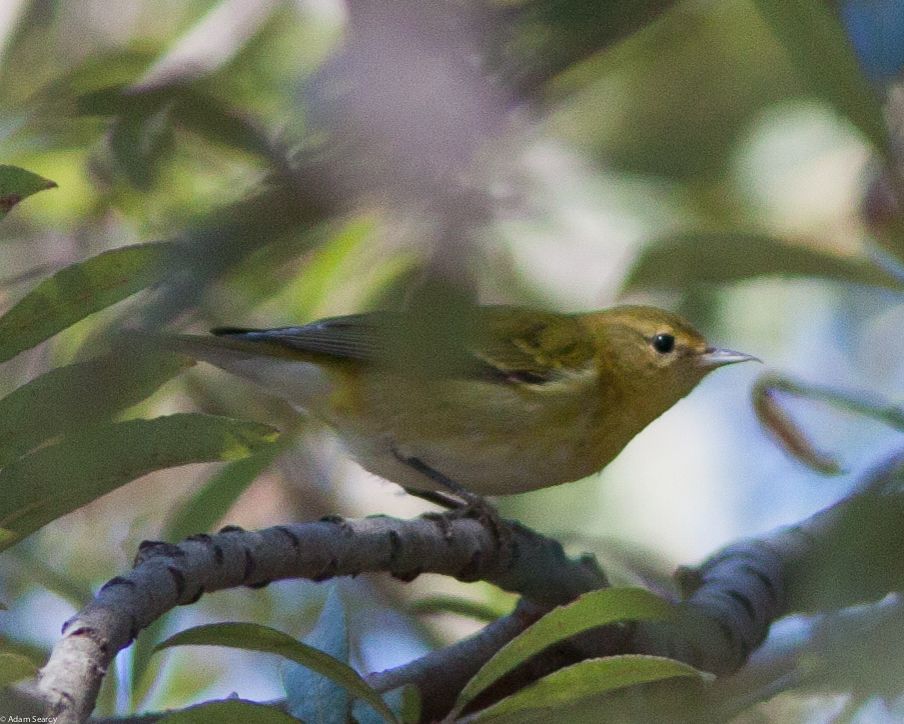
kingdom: Animalia
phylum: Chordata
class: Aves
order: Passeriformes
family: Parulidae
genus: Leiothlypis
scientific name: Leiothlypis peregrina
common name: Tennessee warbler
